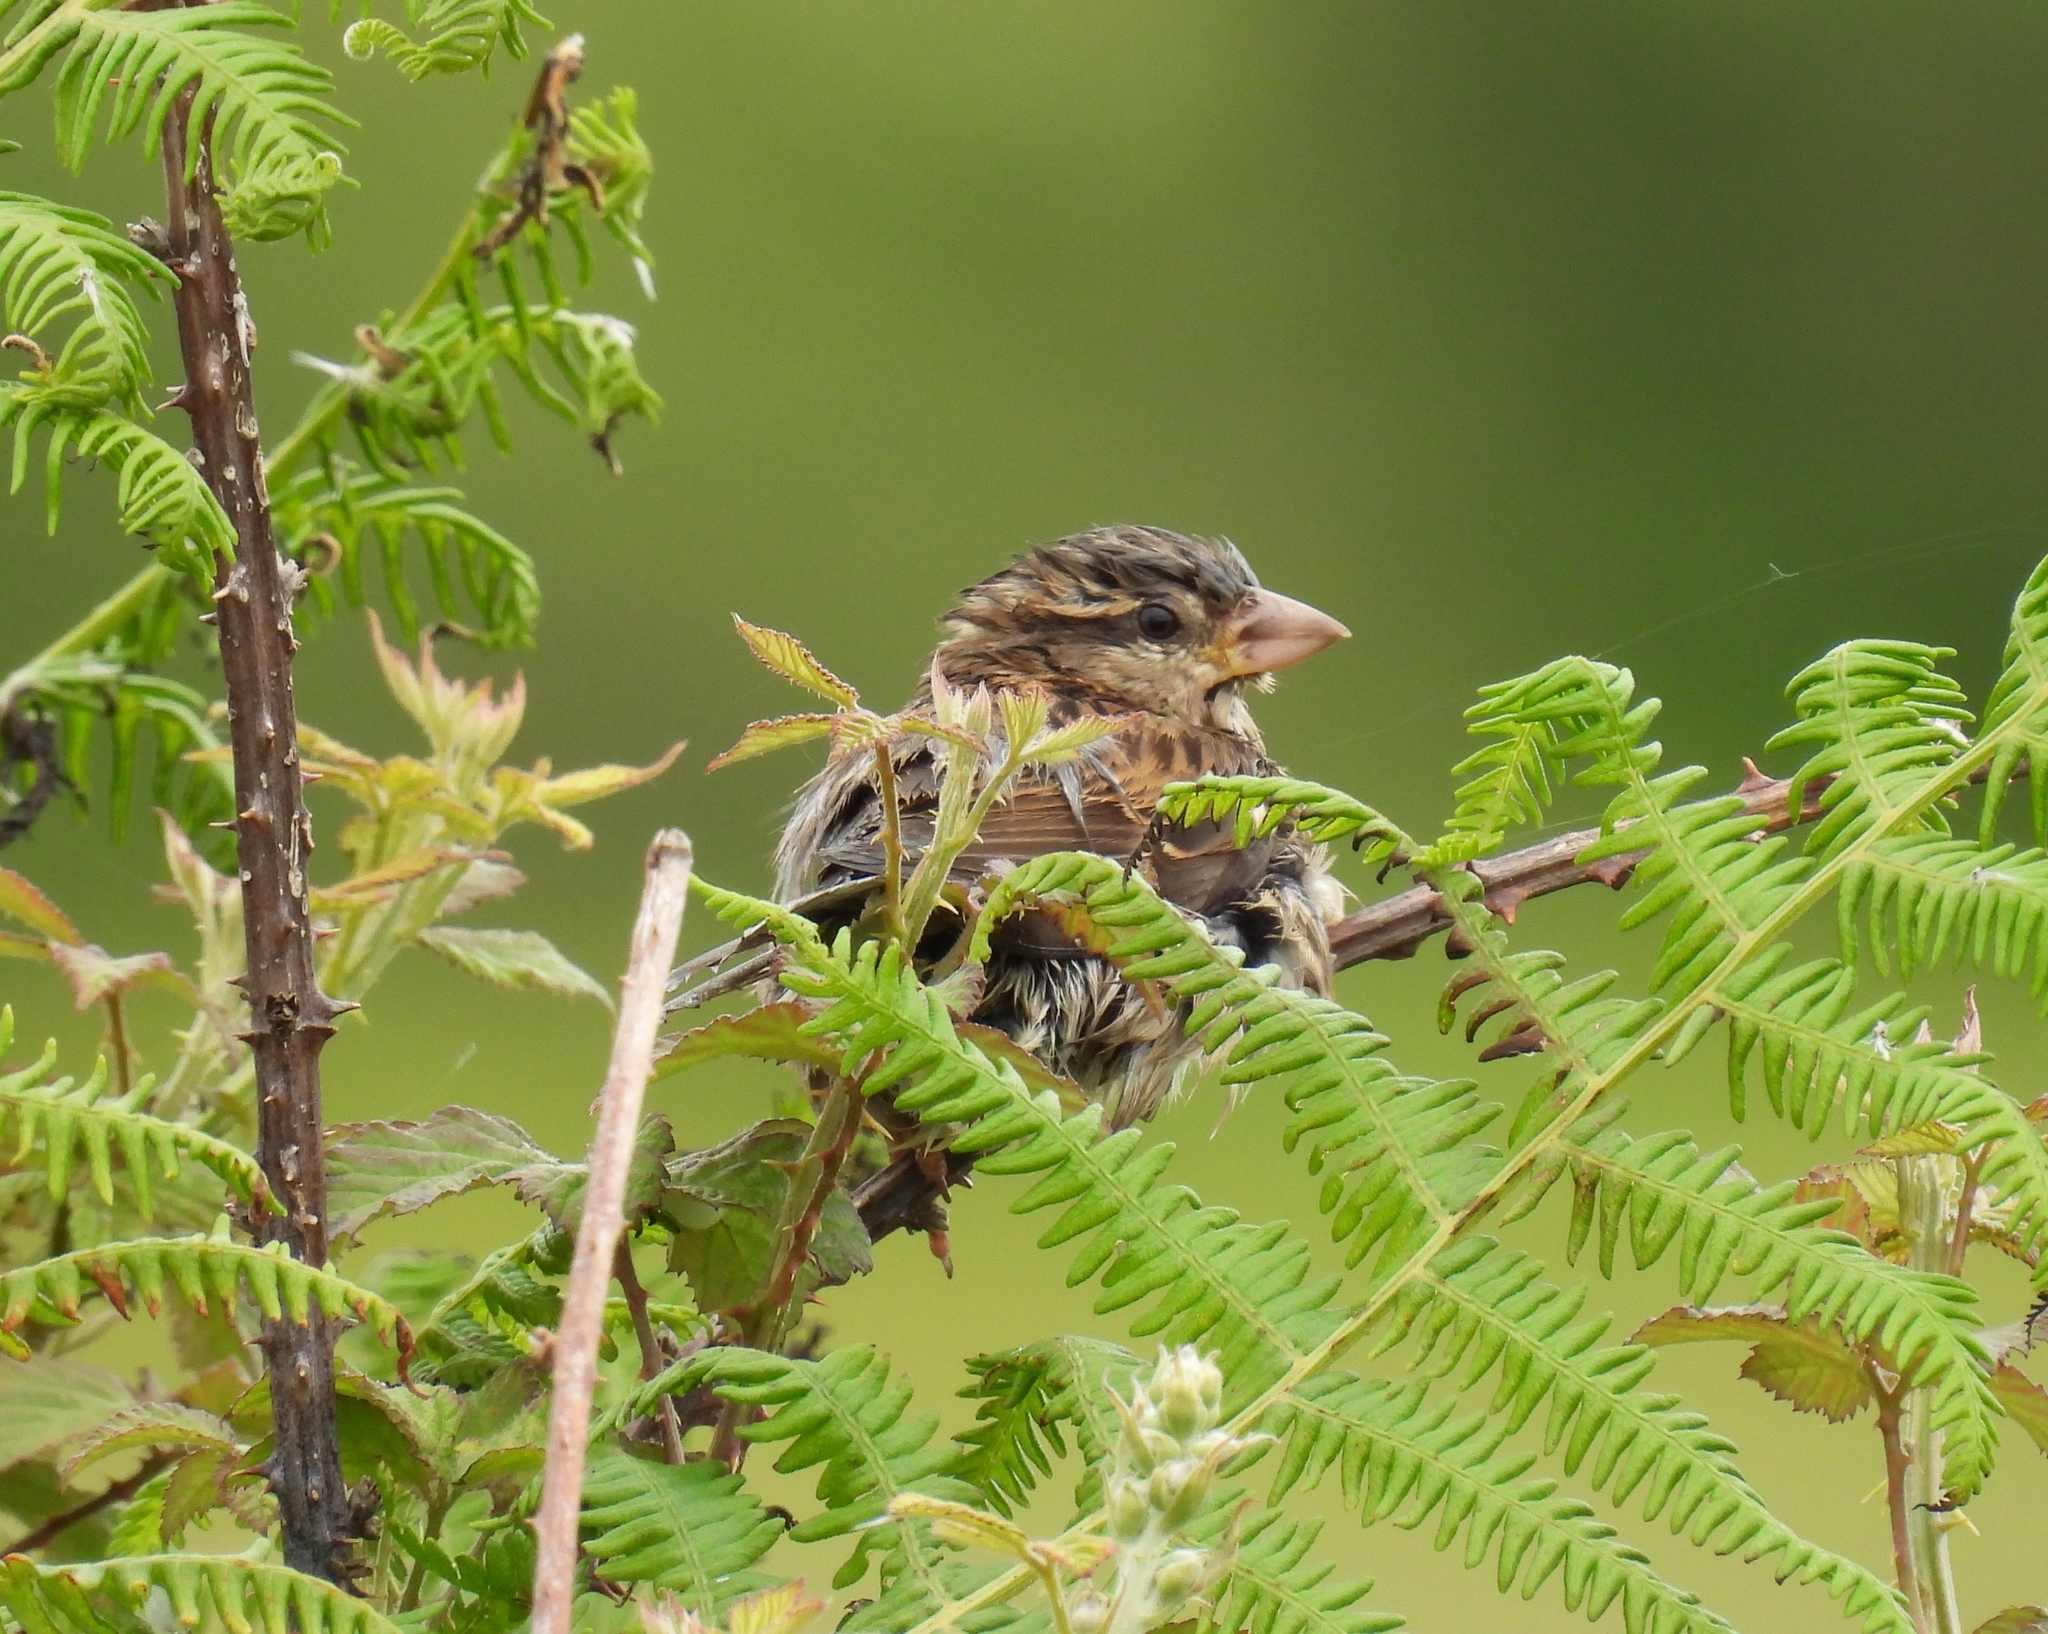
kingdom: Animalia
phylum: Chordata
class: Aves
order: Passeriformes
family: Passeridae
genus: Passer
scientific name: Passer domesticus
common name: House sparrow
